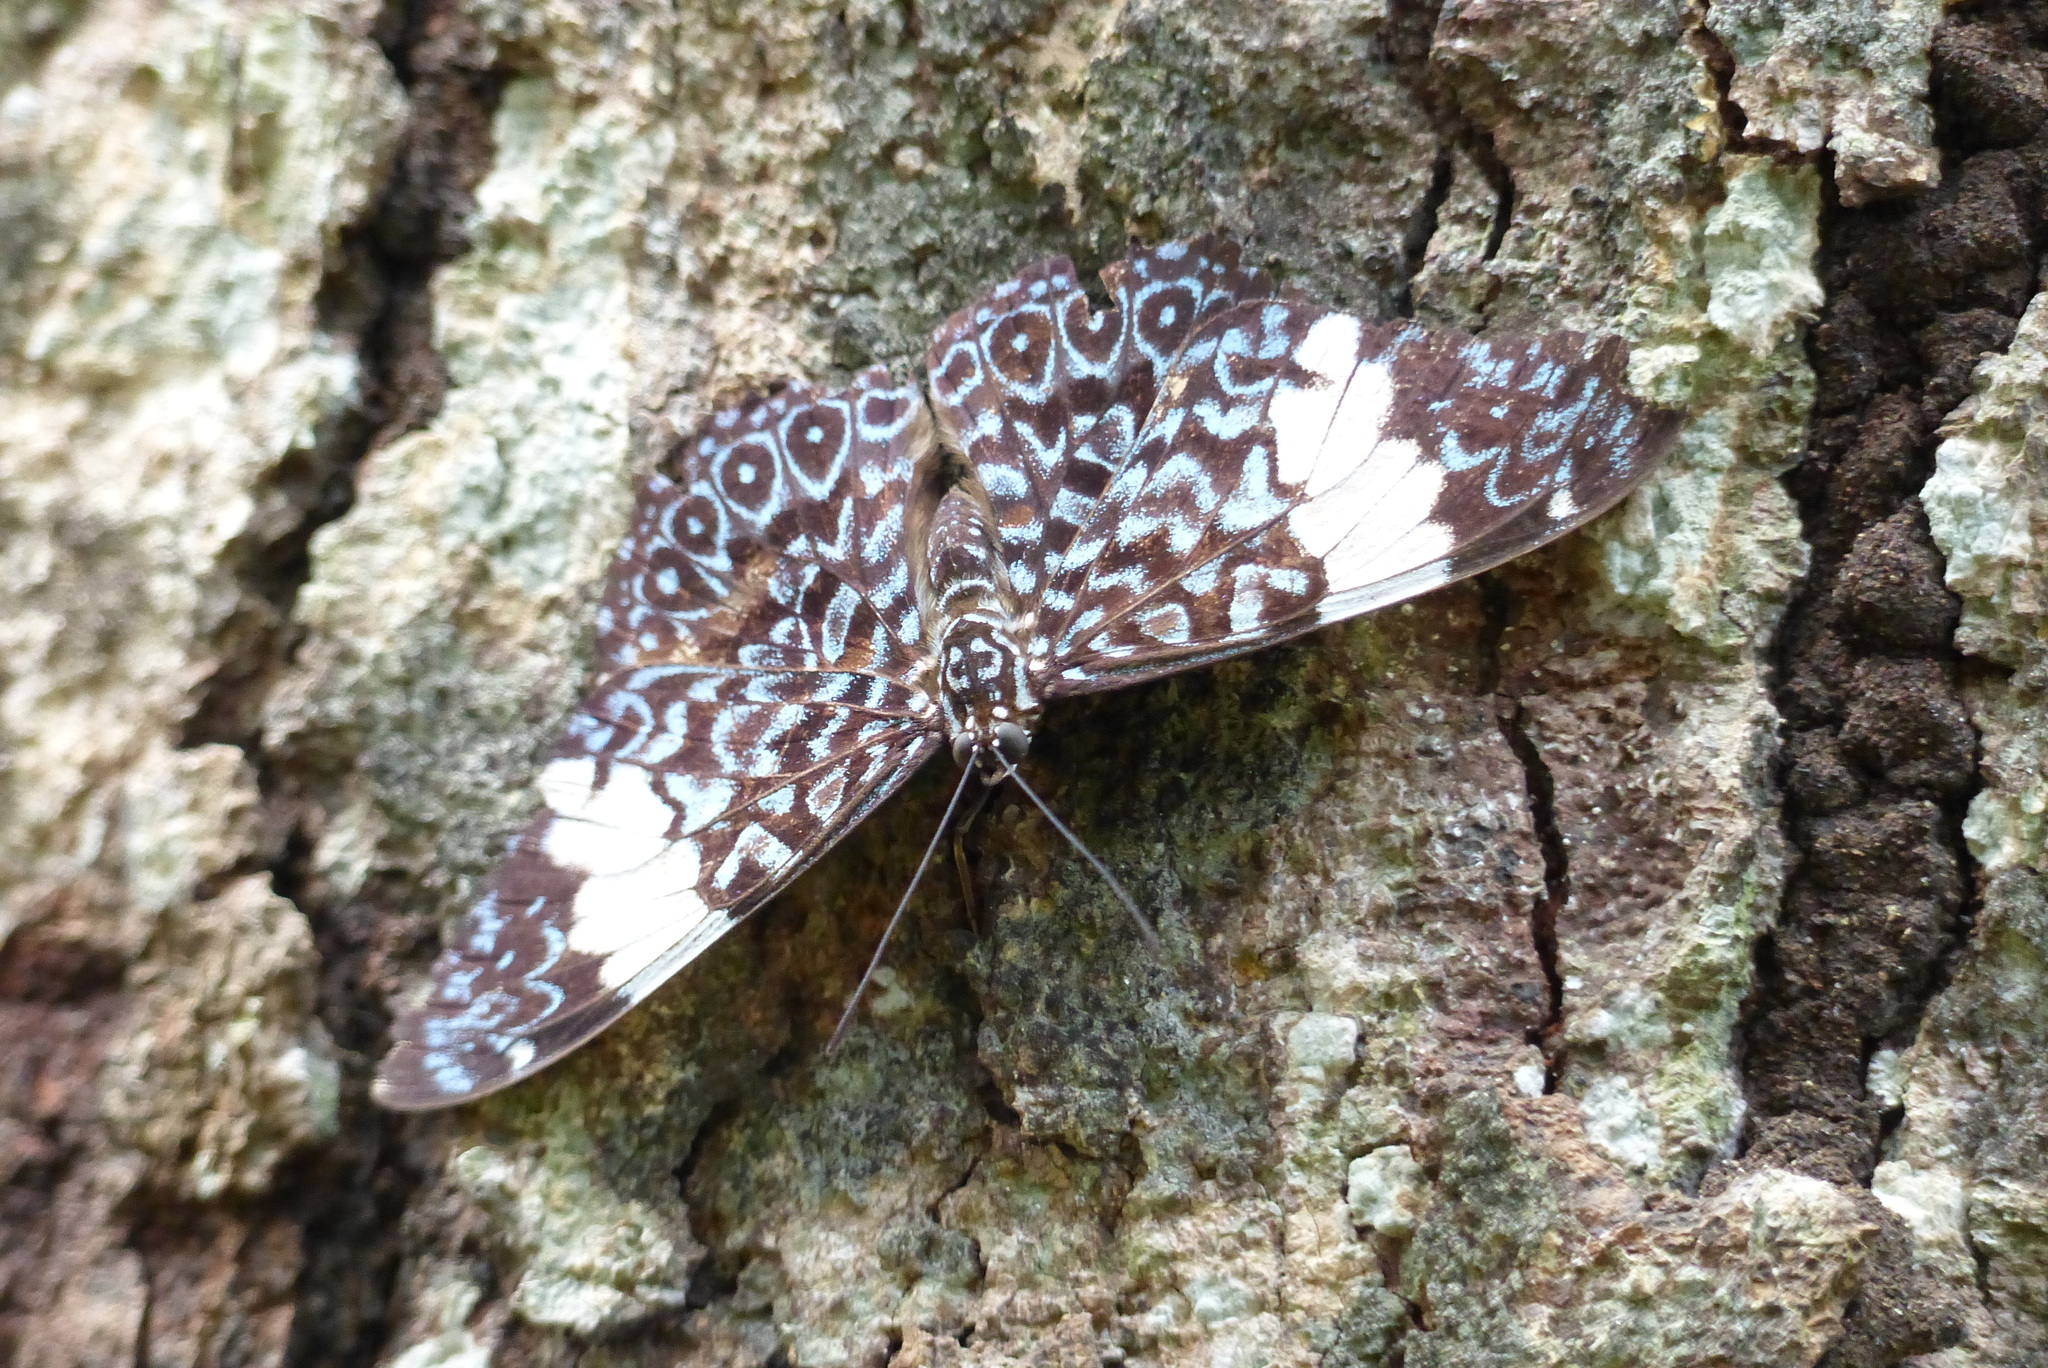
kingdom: Animalia
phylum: Arthropoda
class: Insecta
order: Lepidoptera
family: Nymphalidae
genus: Hamadryas
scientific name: Hamadryas amphinome
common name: Red cracker
